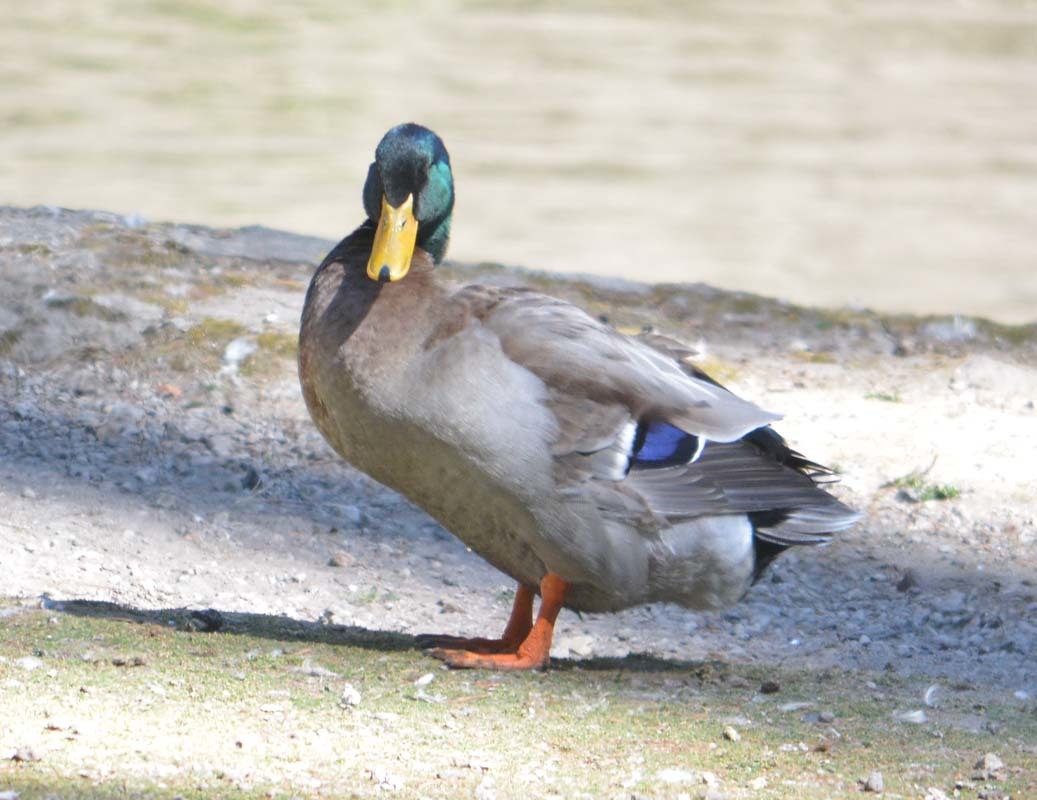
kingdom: Animalia
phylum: Chordata
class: Aves
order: Anseriformes
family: Anatidae
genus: Anas
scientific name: Anas platyrhynchos
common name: Mallard
